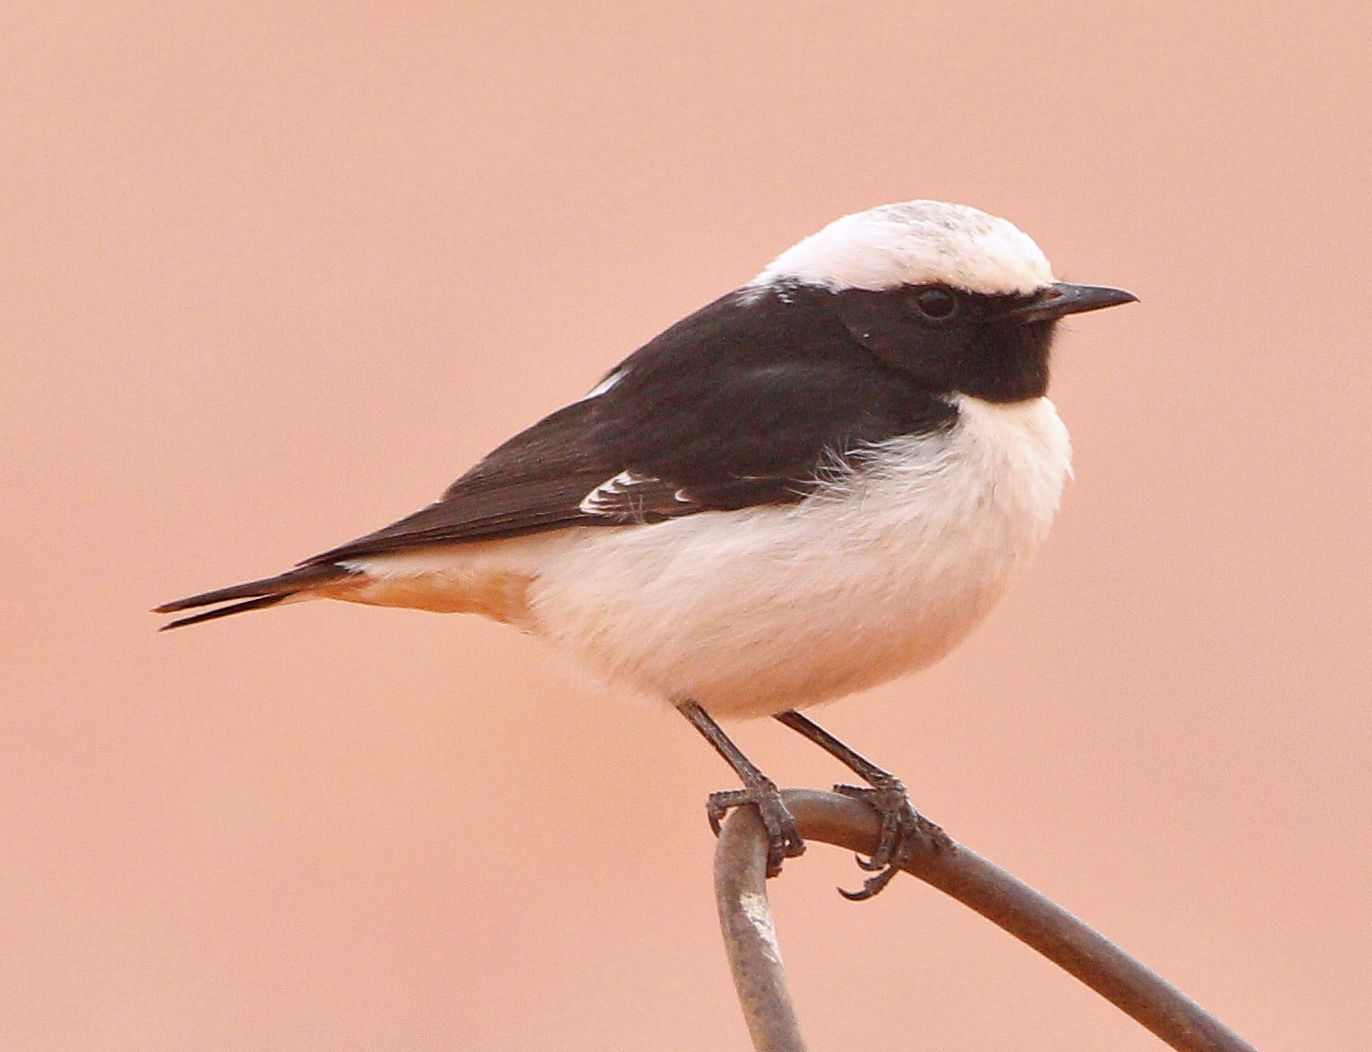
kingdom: Animalia
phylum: Chordata
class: Aves
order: Passeriformes
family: Muscicapidae
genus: Oenanthe
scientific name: Oenanthe lugens
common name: Mourning wheatear
